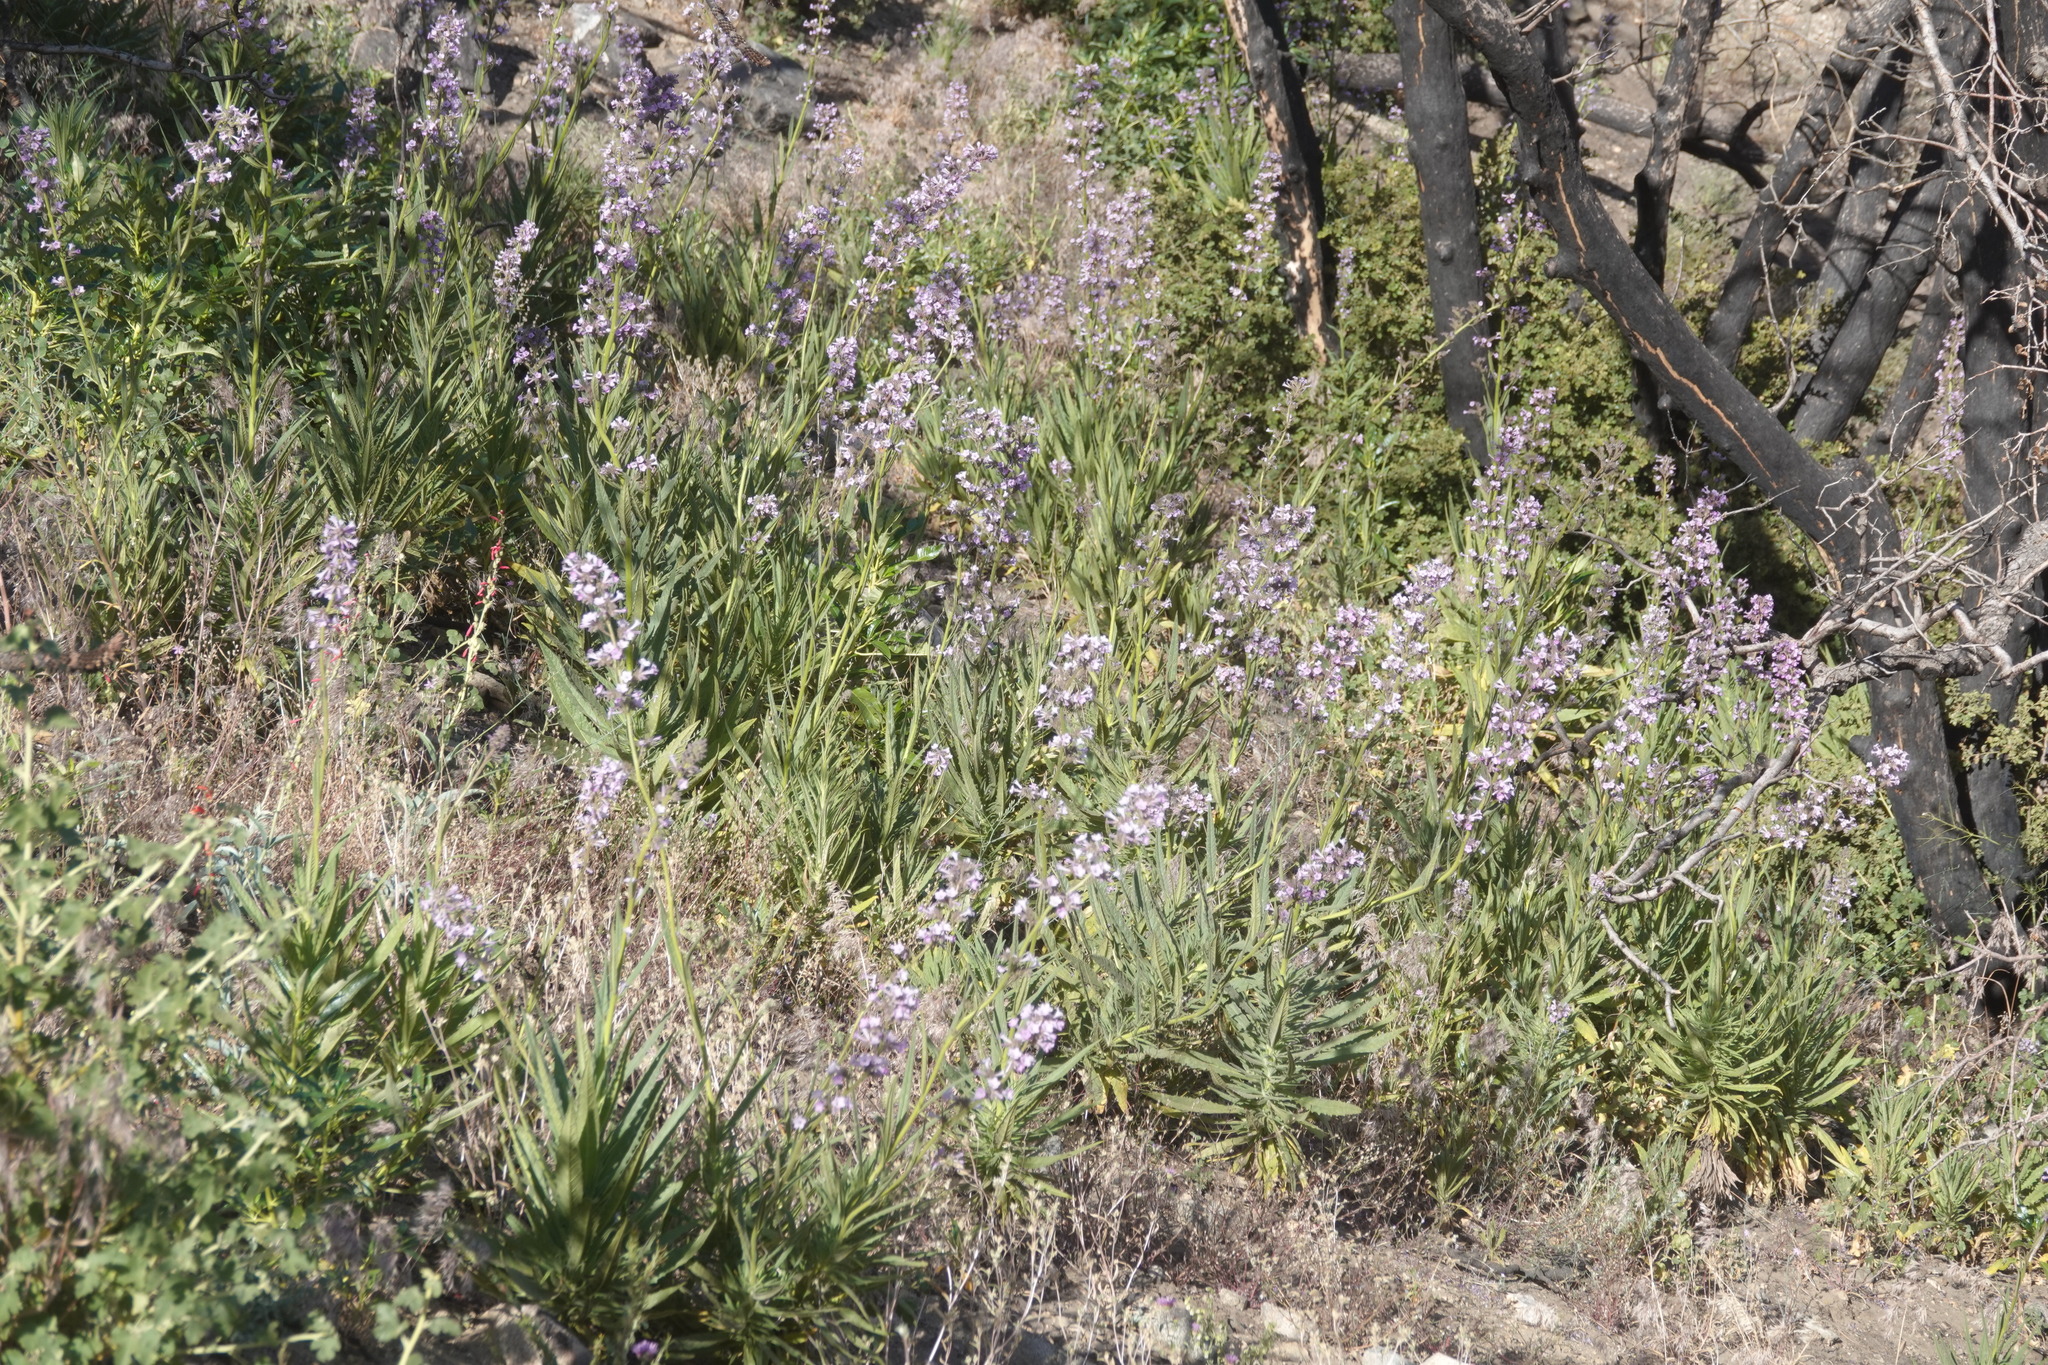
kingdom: Plantae
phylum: Tracheophyta
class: Magnoliopsida
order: Boraginales
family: Namaceae
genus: Turricula
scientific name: Turricula parryi
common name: Poodle-dog-bush
